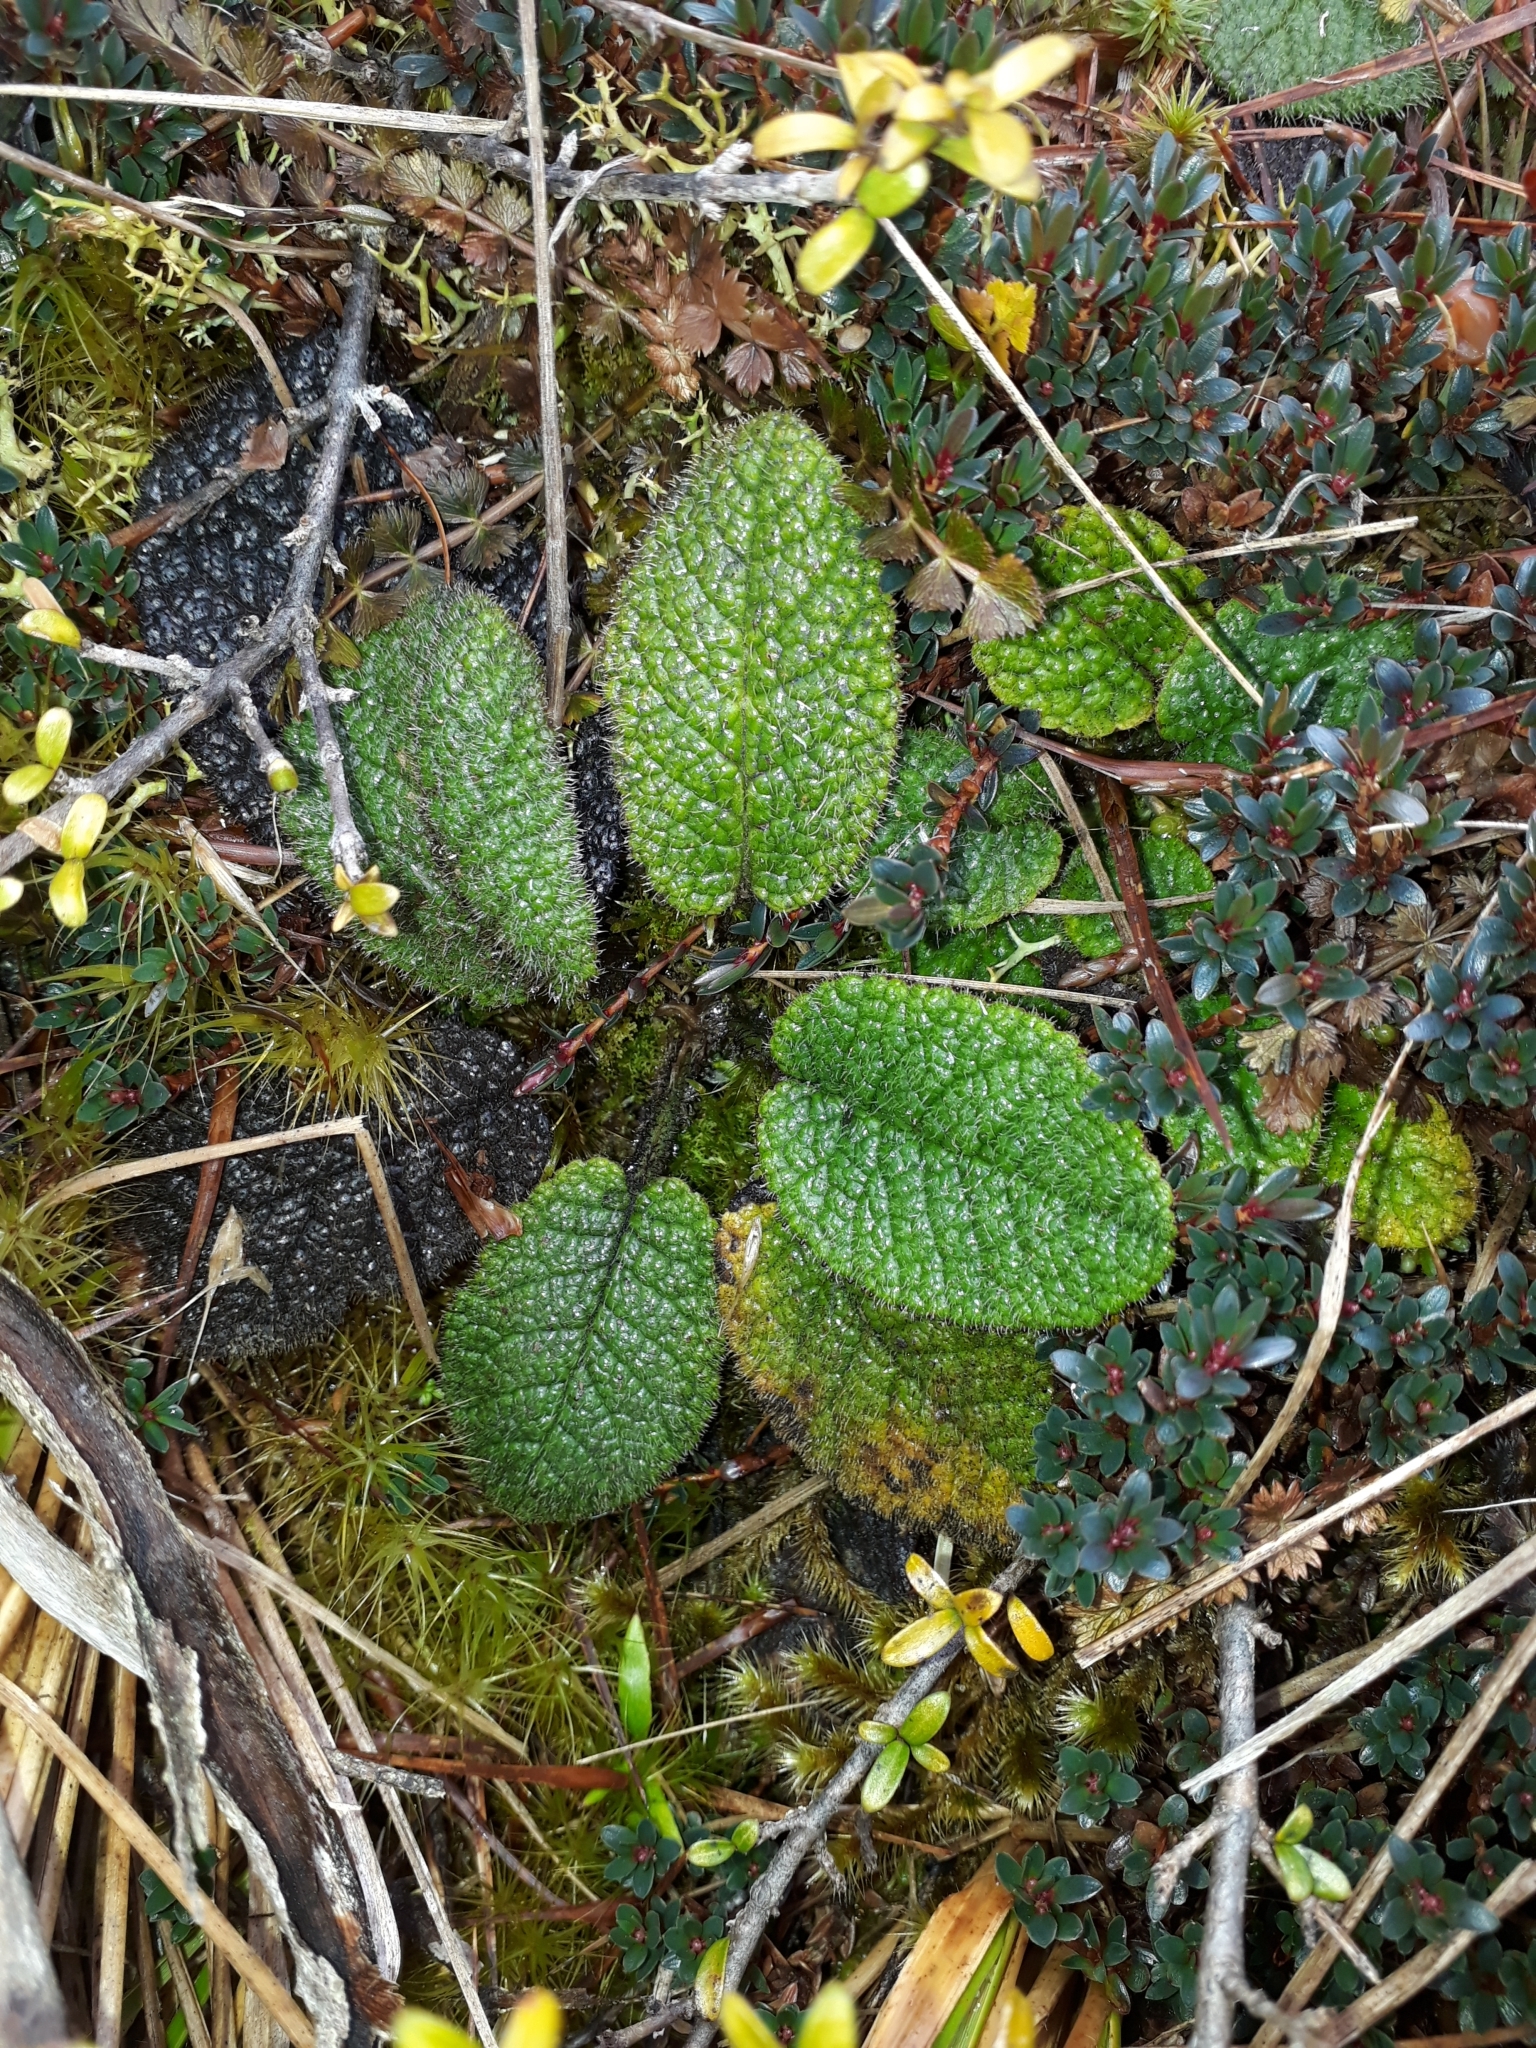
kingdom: Plantae
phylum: Tracheophyta
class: Magnoliopsida
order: Asterales
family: Asteraceae
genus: Brachyglottis
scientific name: Brachyglottis lagopus
